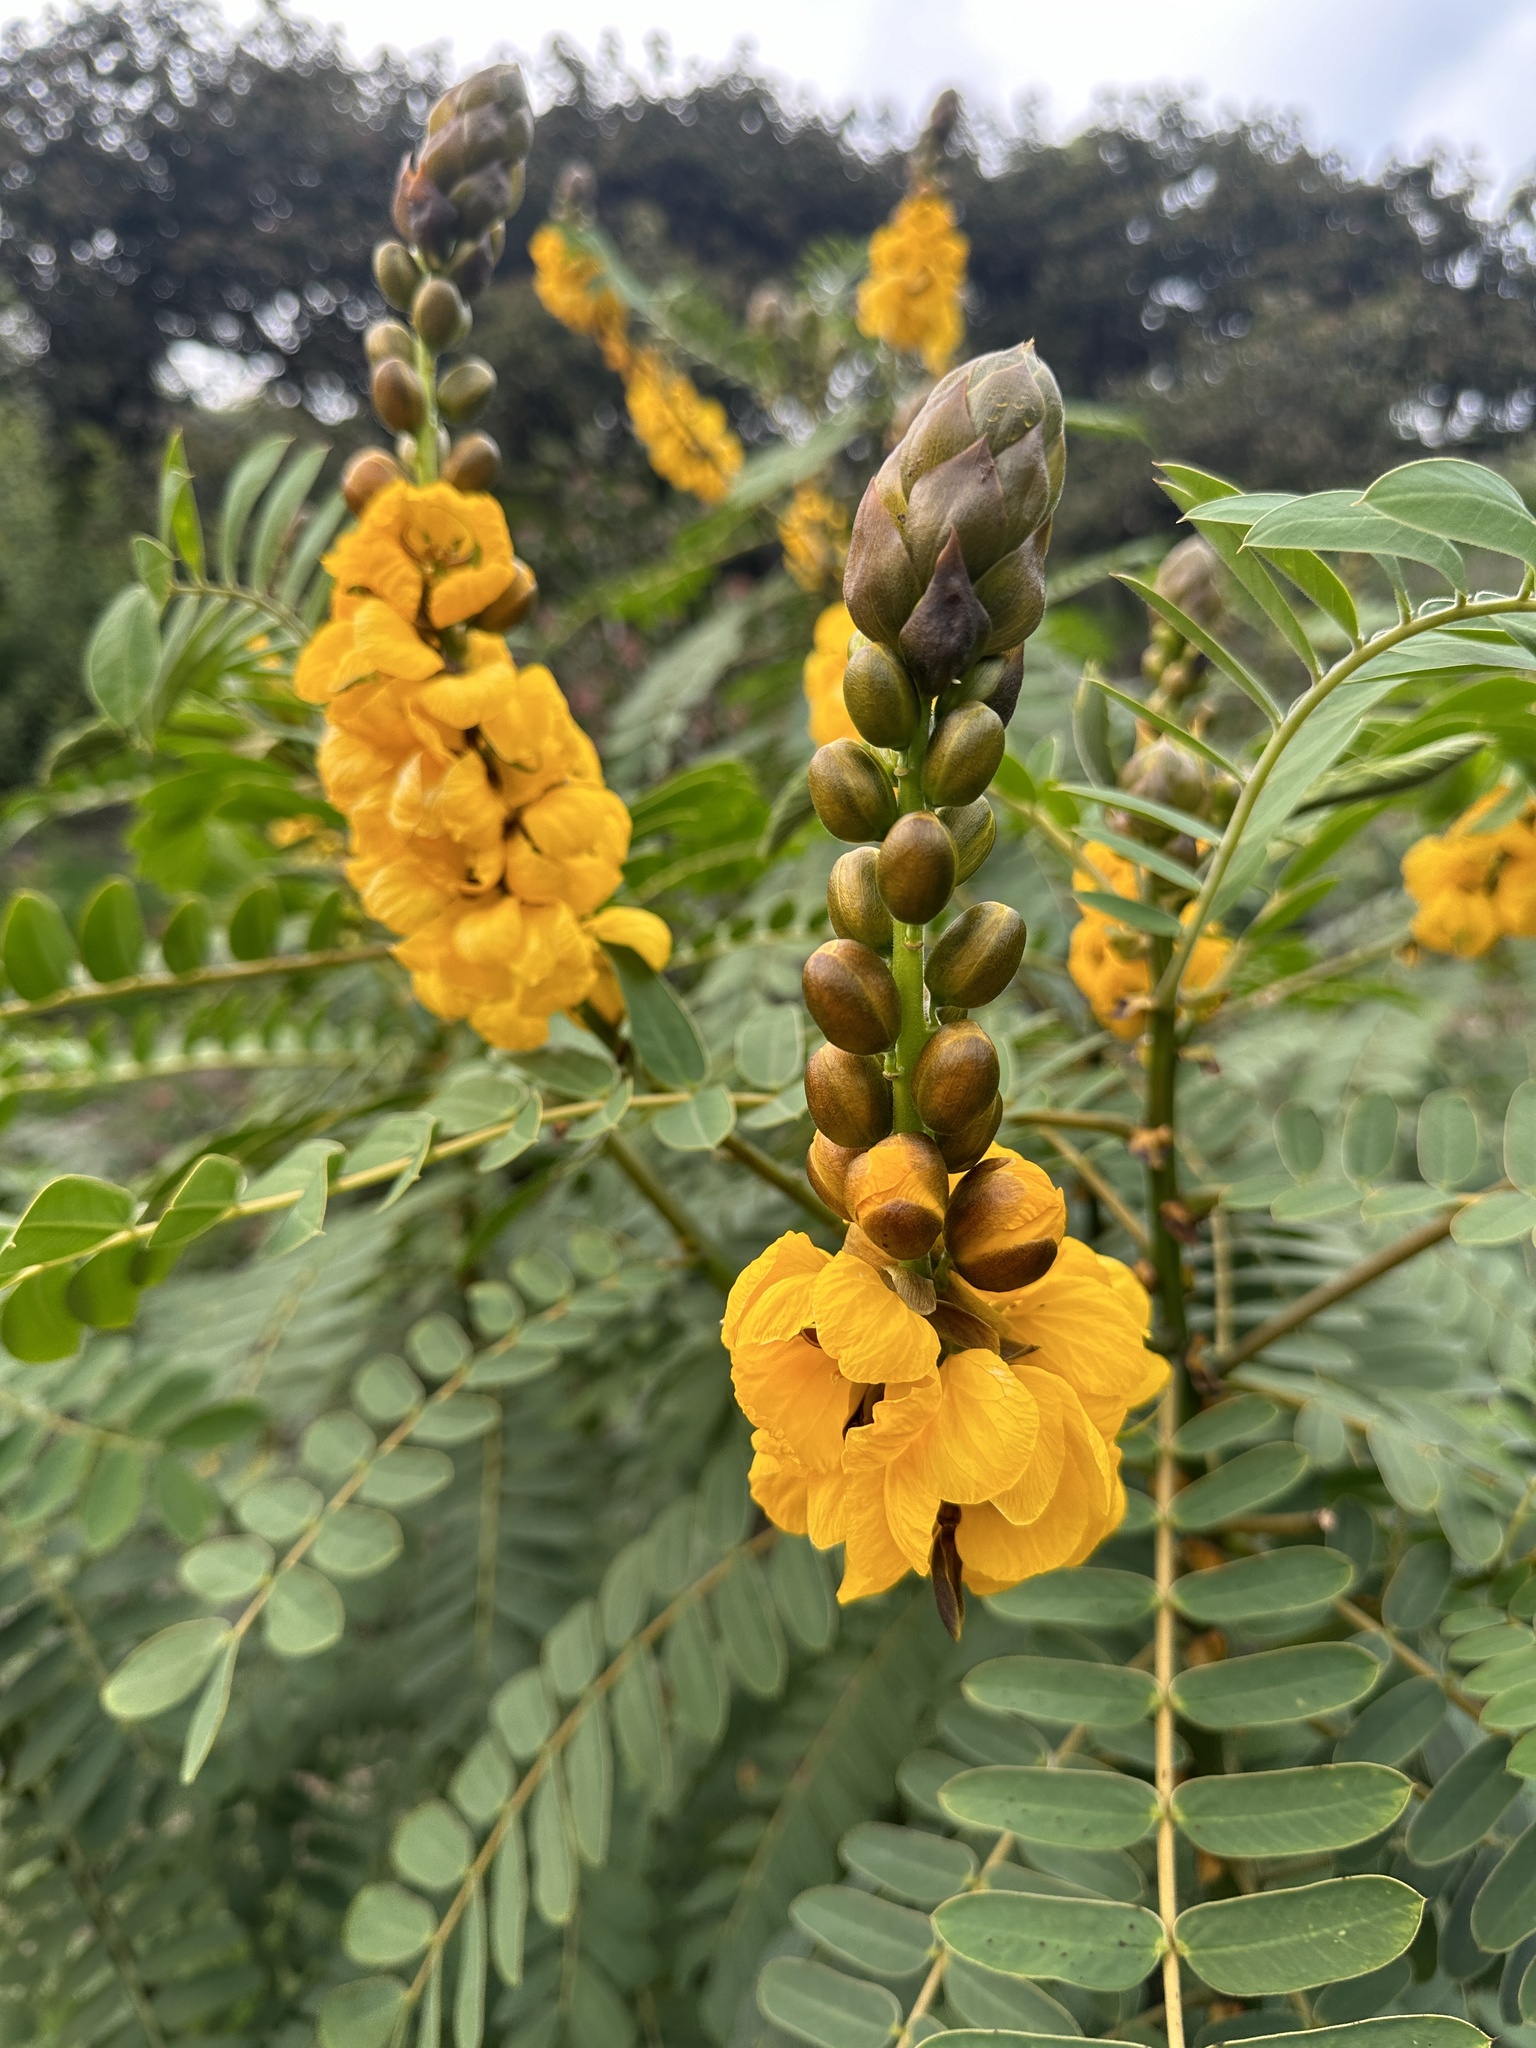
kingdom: Plantae
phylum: Tracheophyta
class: Magnoliopsida
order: Fabales
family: Fabaceae
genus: Senna
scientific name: Senna didymobotrya
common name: African senna
